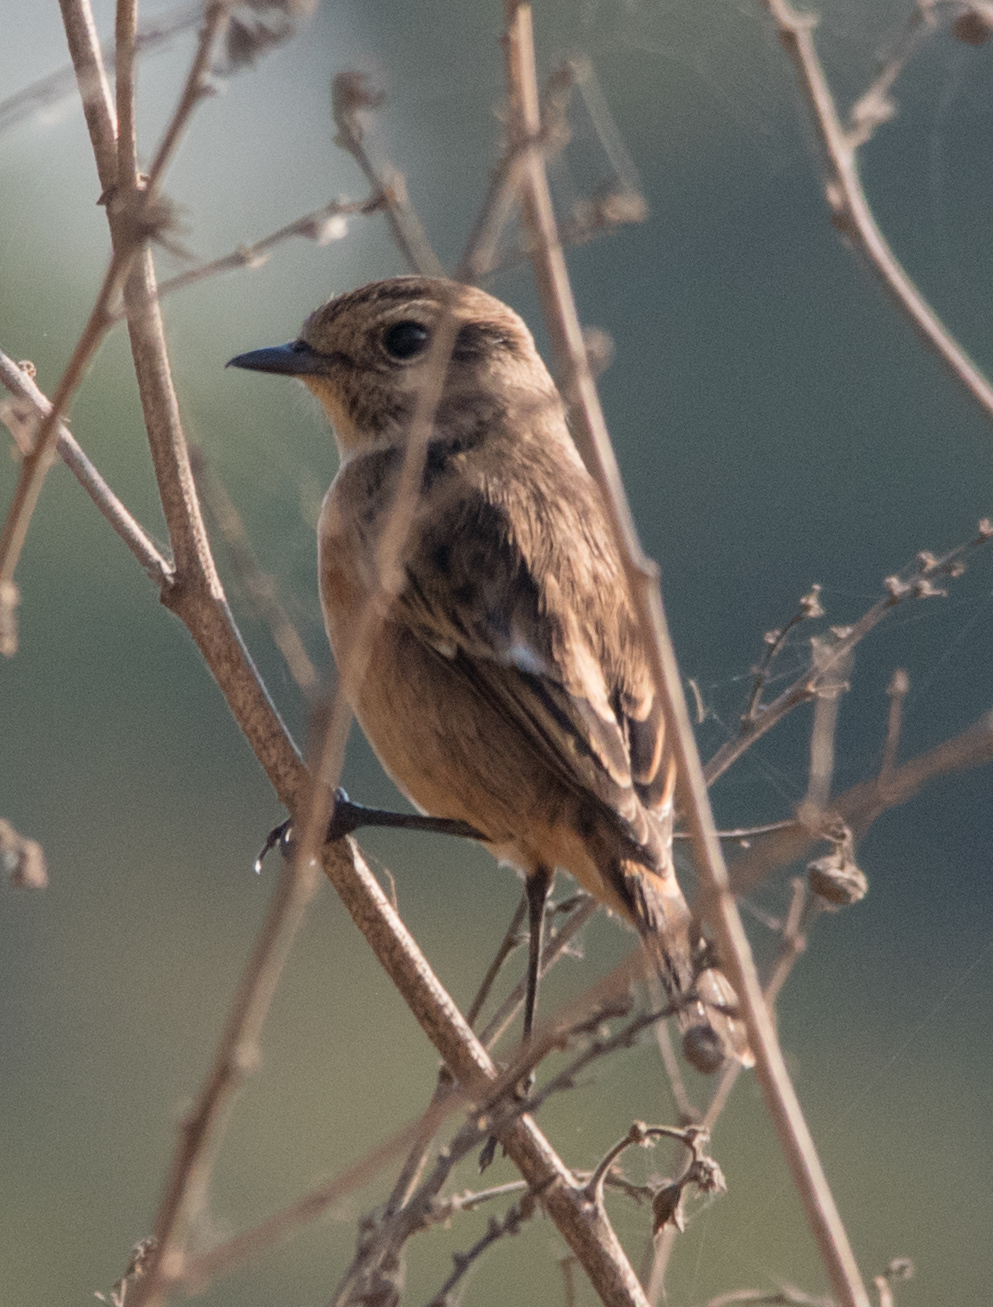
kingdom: Animalia
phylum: Chordata
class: Aves
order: Passeriformes
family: Muscicapidae
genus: Saxicola
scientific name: Saxicola rubicola
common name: European stonechat
